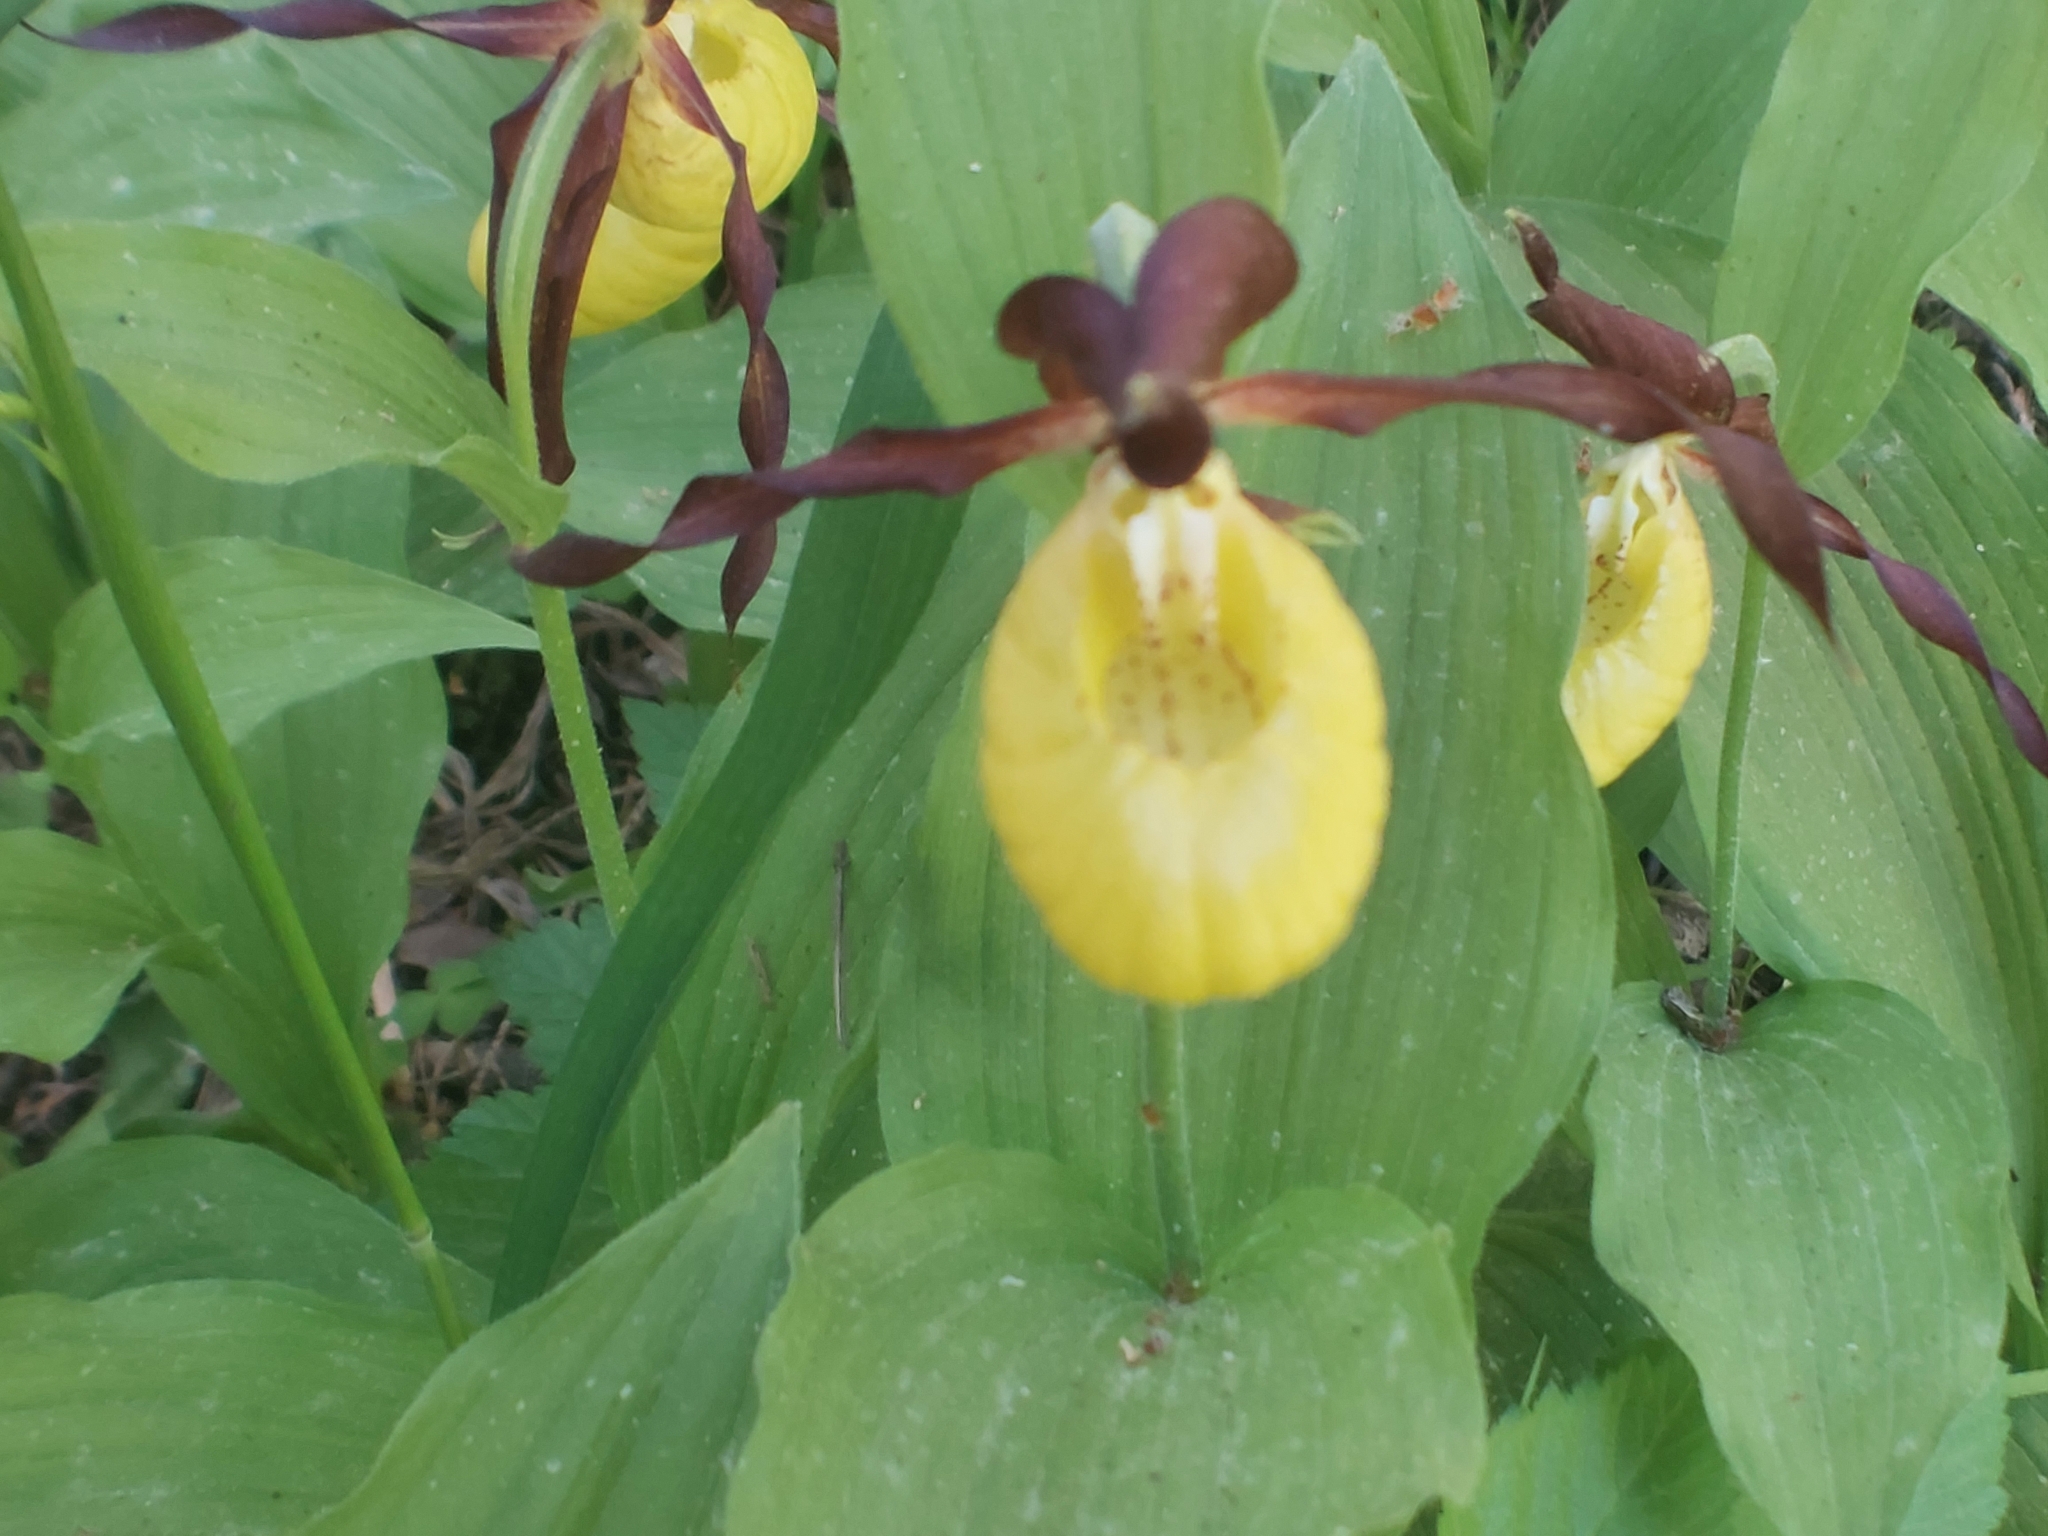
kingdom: Plantae
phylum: Tracheophyta
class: Liliopsida
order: Asparagales
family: Orchidaceae
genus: Cypripedium
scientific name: Cypripedium calceolus
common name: Lady's-slipper
